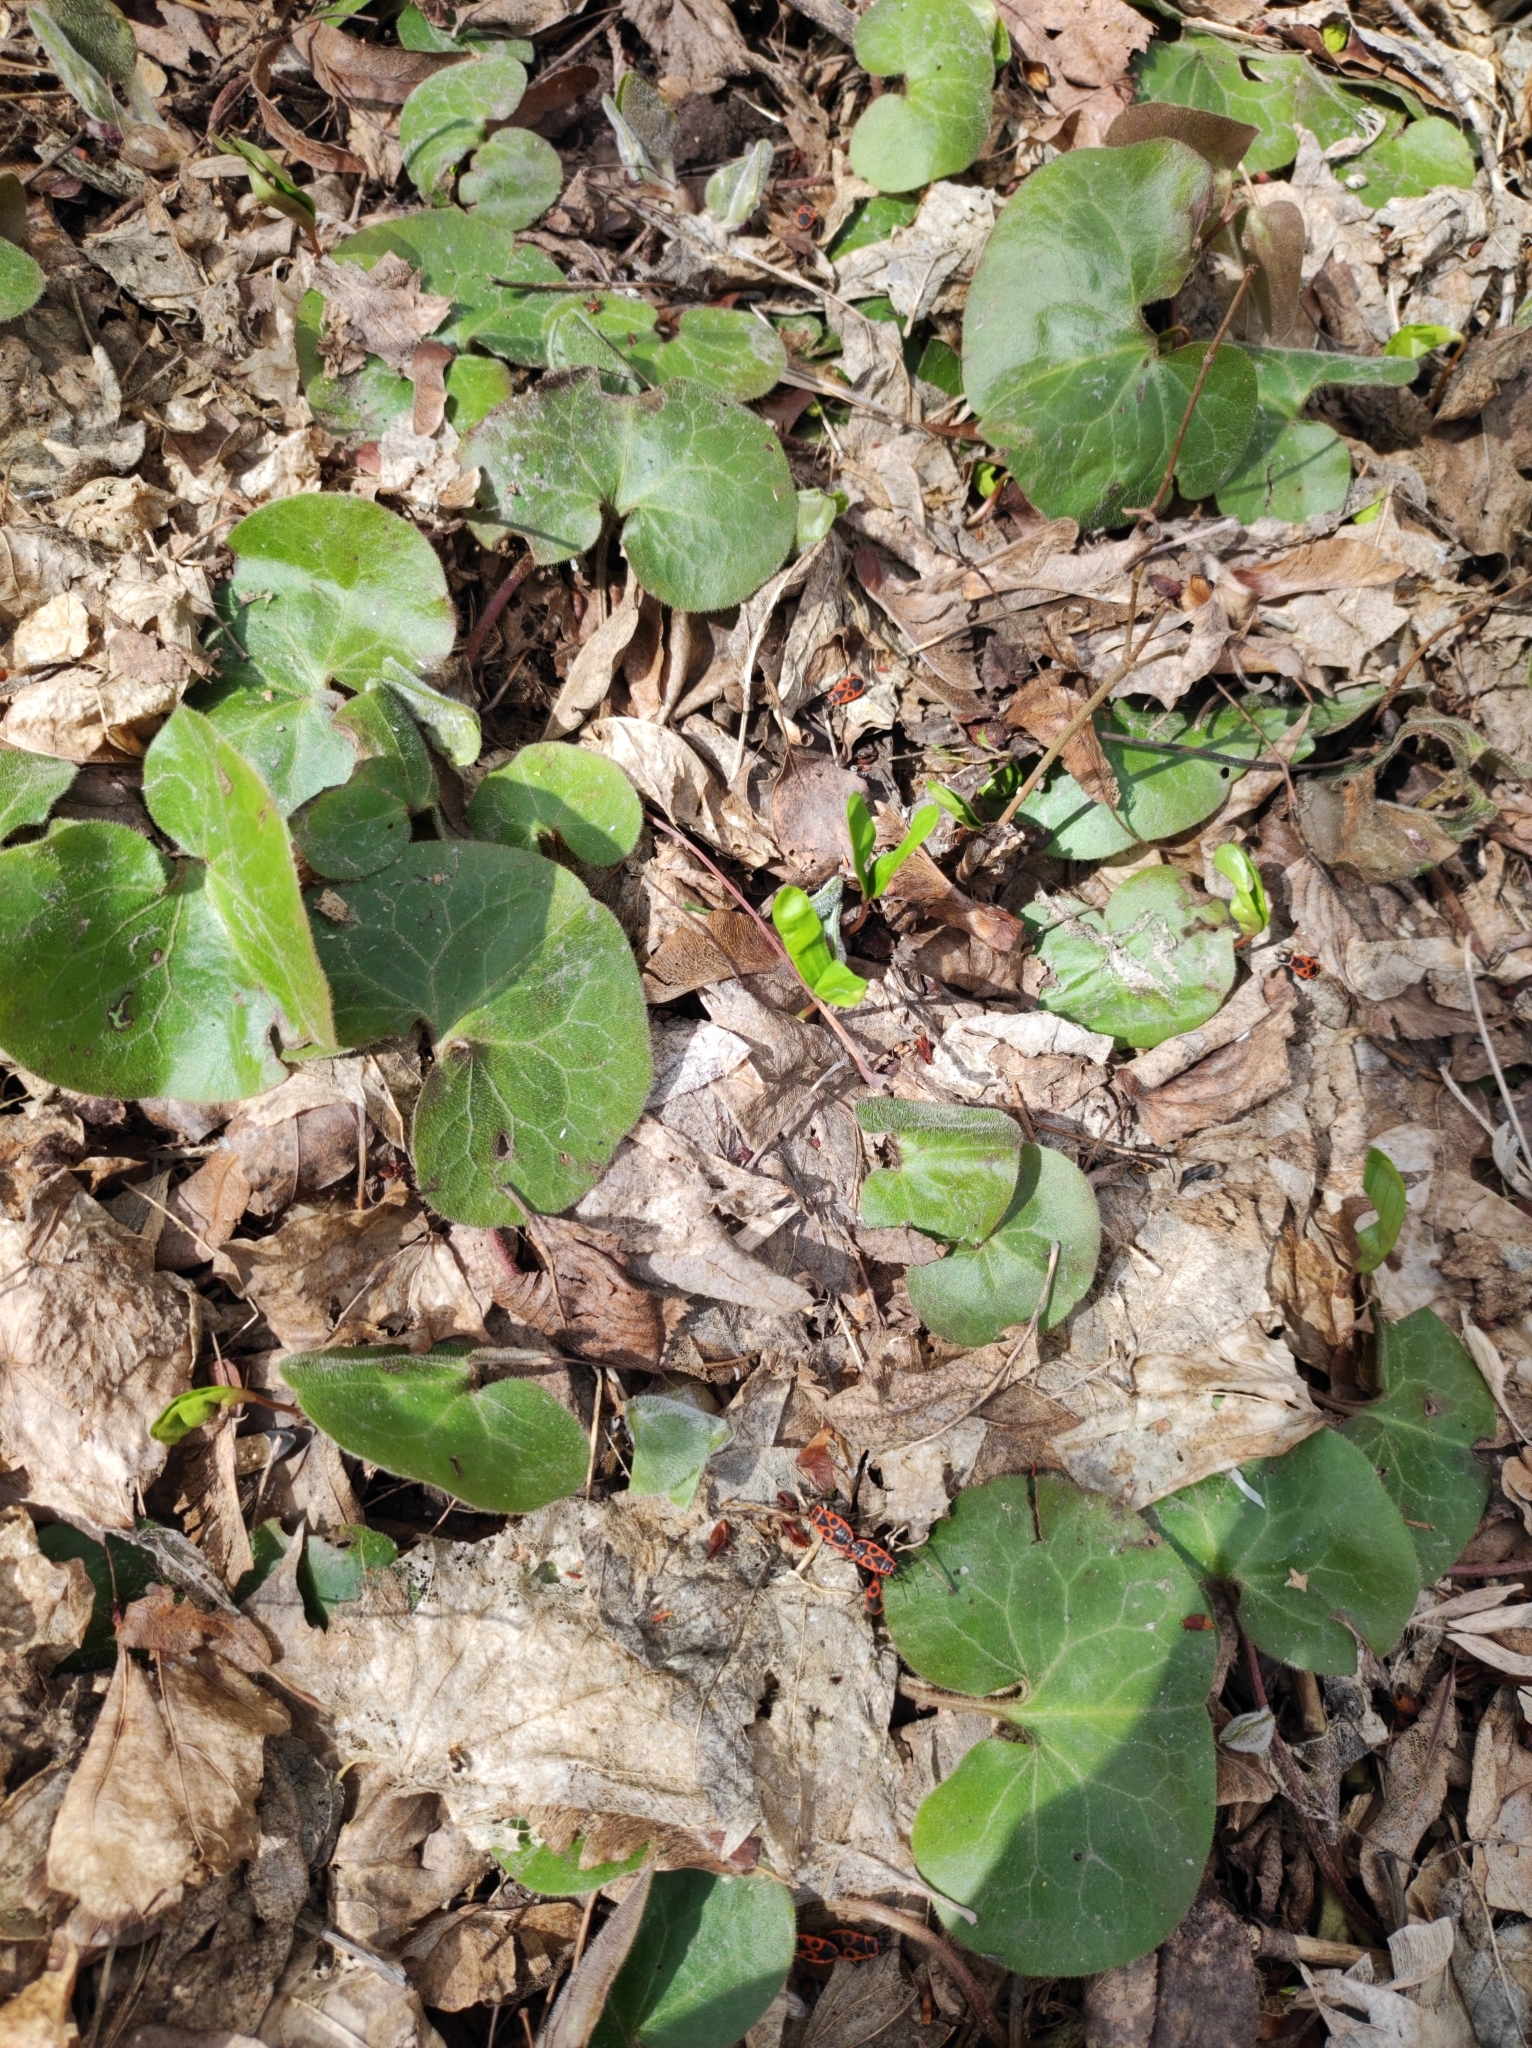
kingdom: Plantae
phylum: Tracheophyta
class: Magnoliopsida
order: Piperales
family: Aristolochiaceae
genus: Asarum
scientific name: Asarum europaeum
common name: Asarabacca
